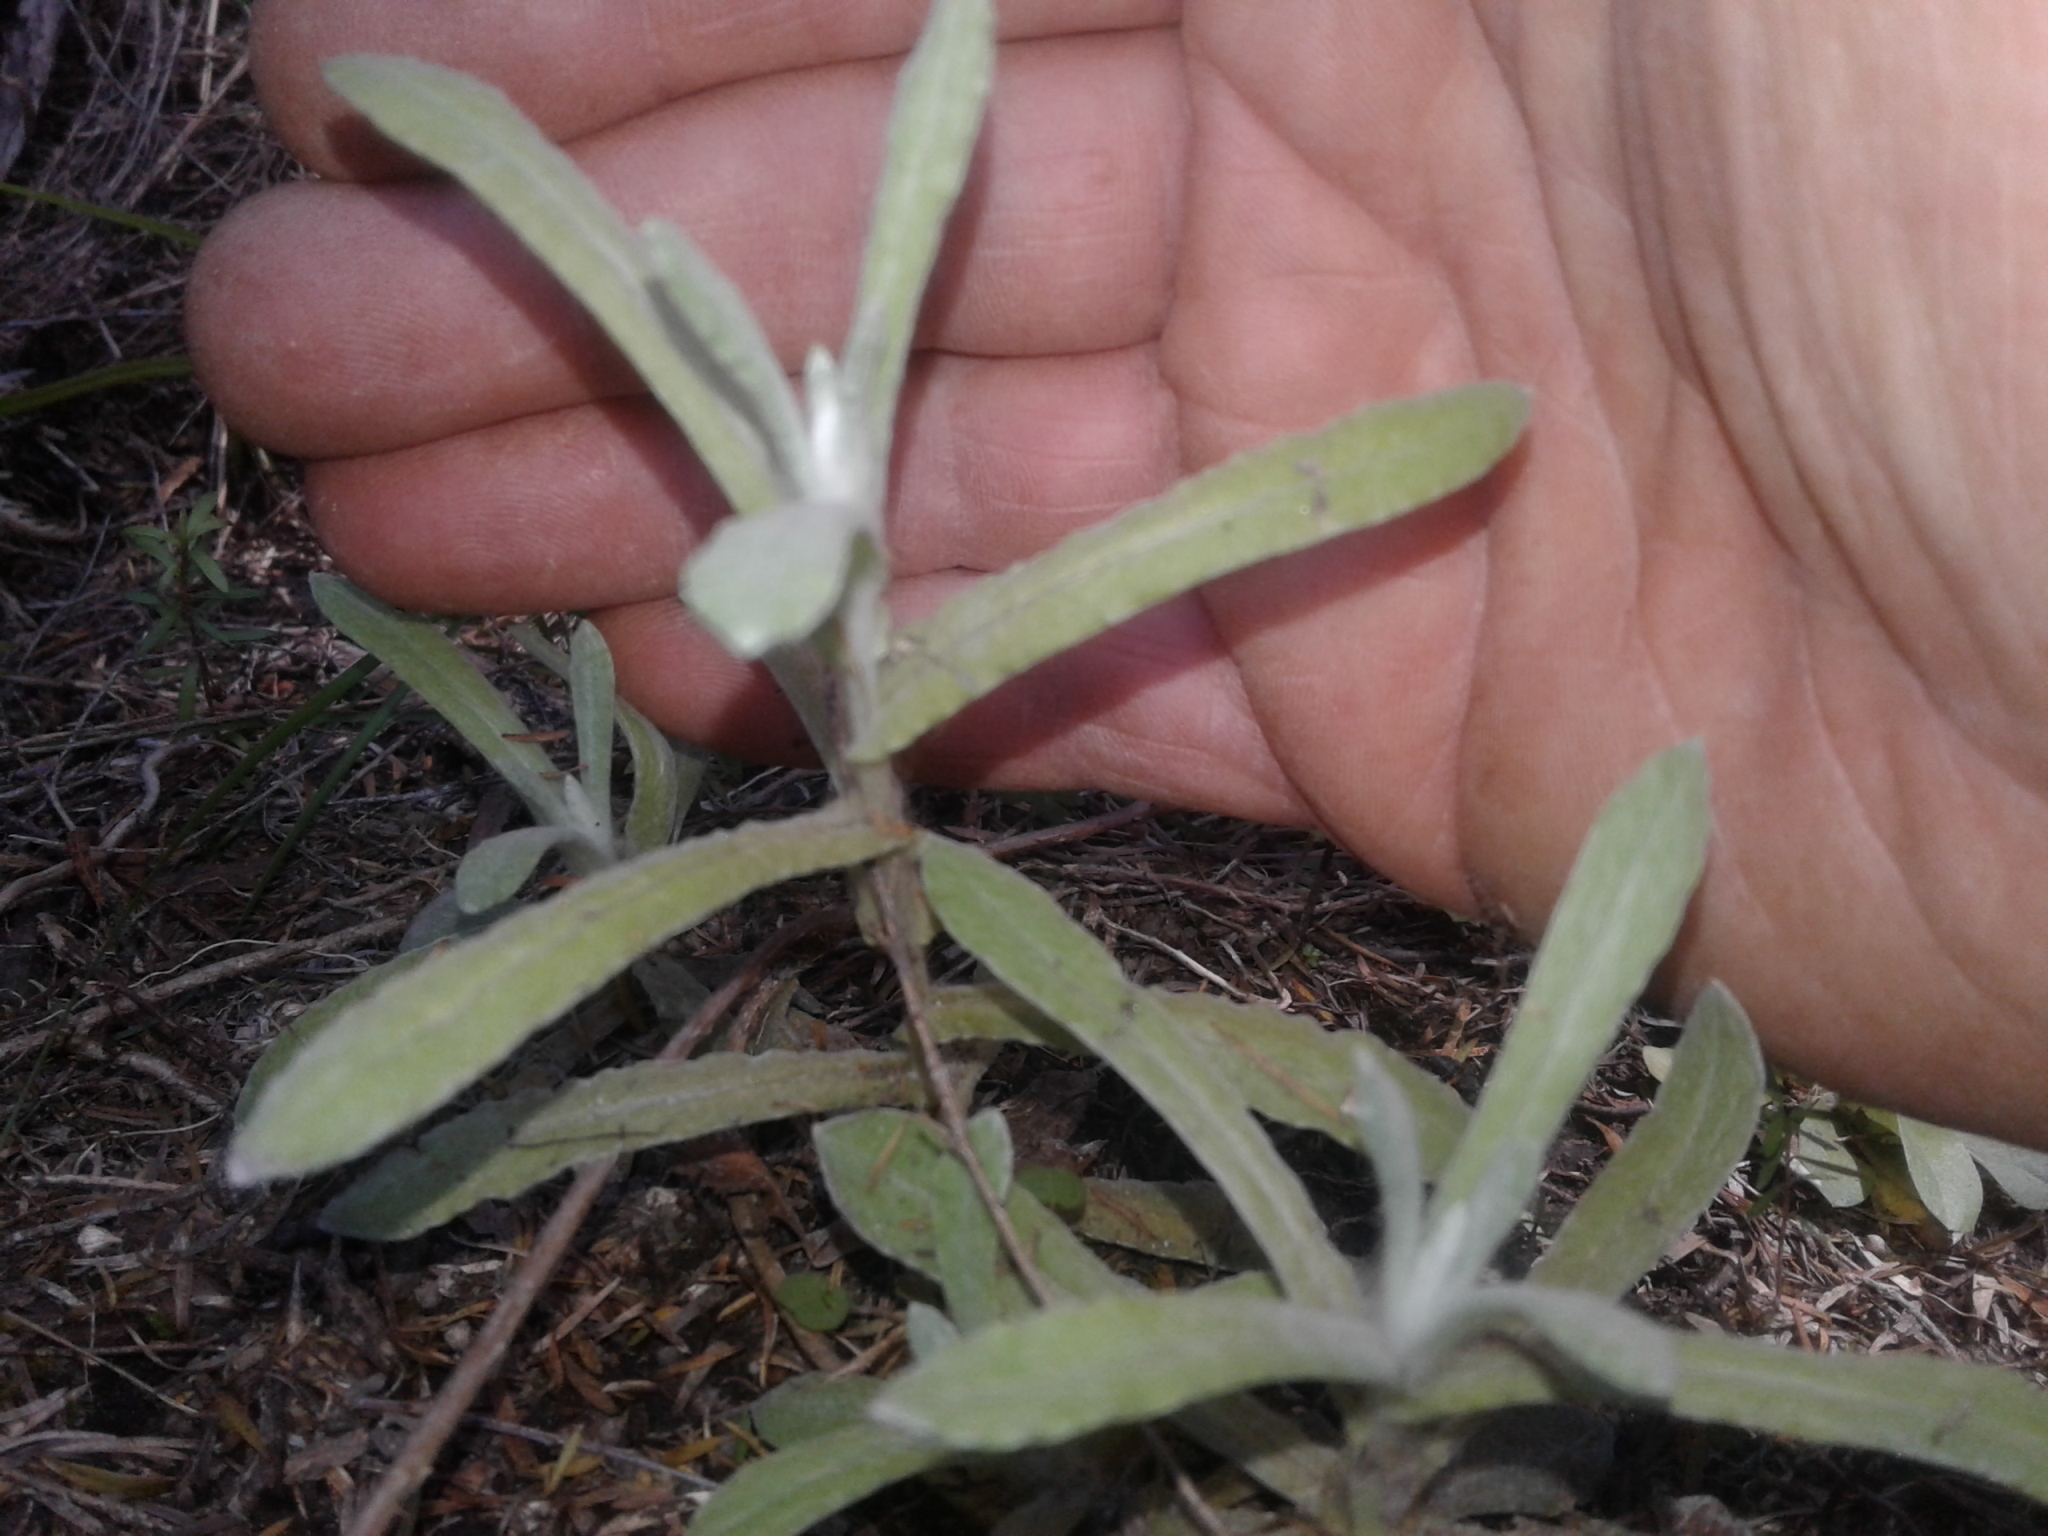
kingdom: Plantae
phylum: Tracheophyta
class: Magnoliopsida
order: Asterales
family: Asteraceae
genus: Helichrysum
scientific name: Helichrysum luteoalbum
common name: Daisy
